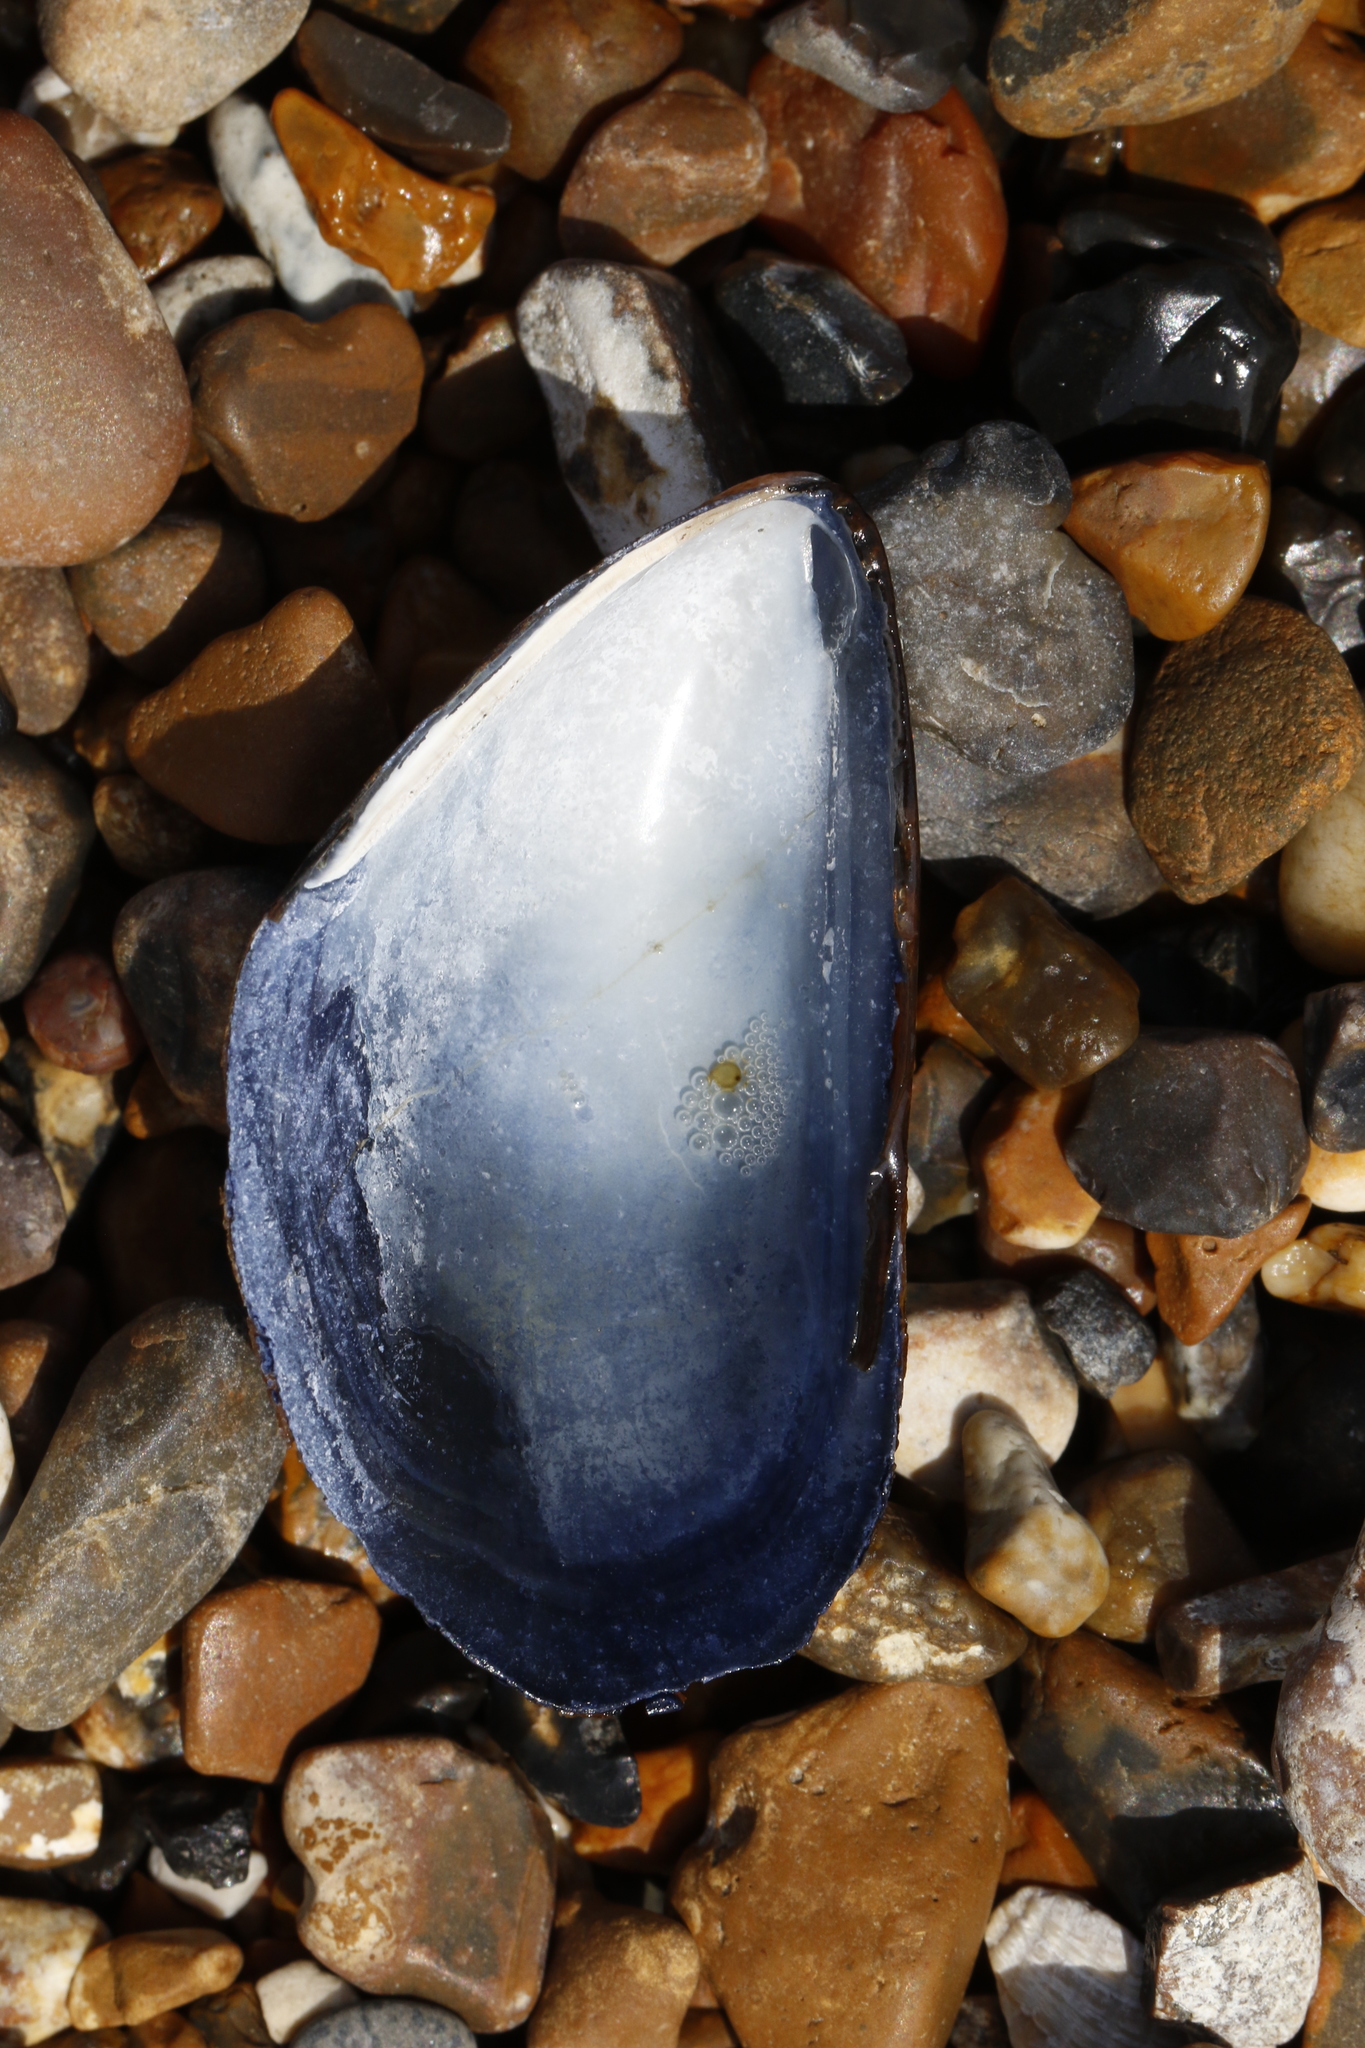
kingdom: Animalia
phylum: Mollusca
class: Bivalvia
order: Mytilida
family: Mytilidae
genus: Mytilus
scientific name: Mytilus edulis
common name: Blue mussel
